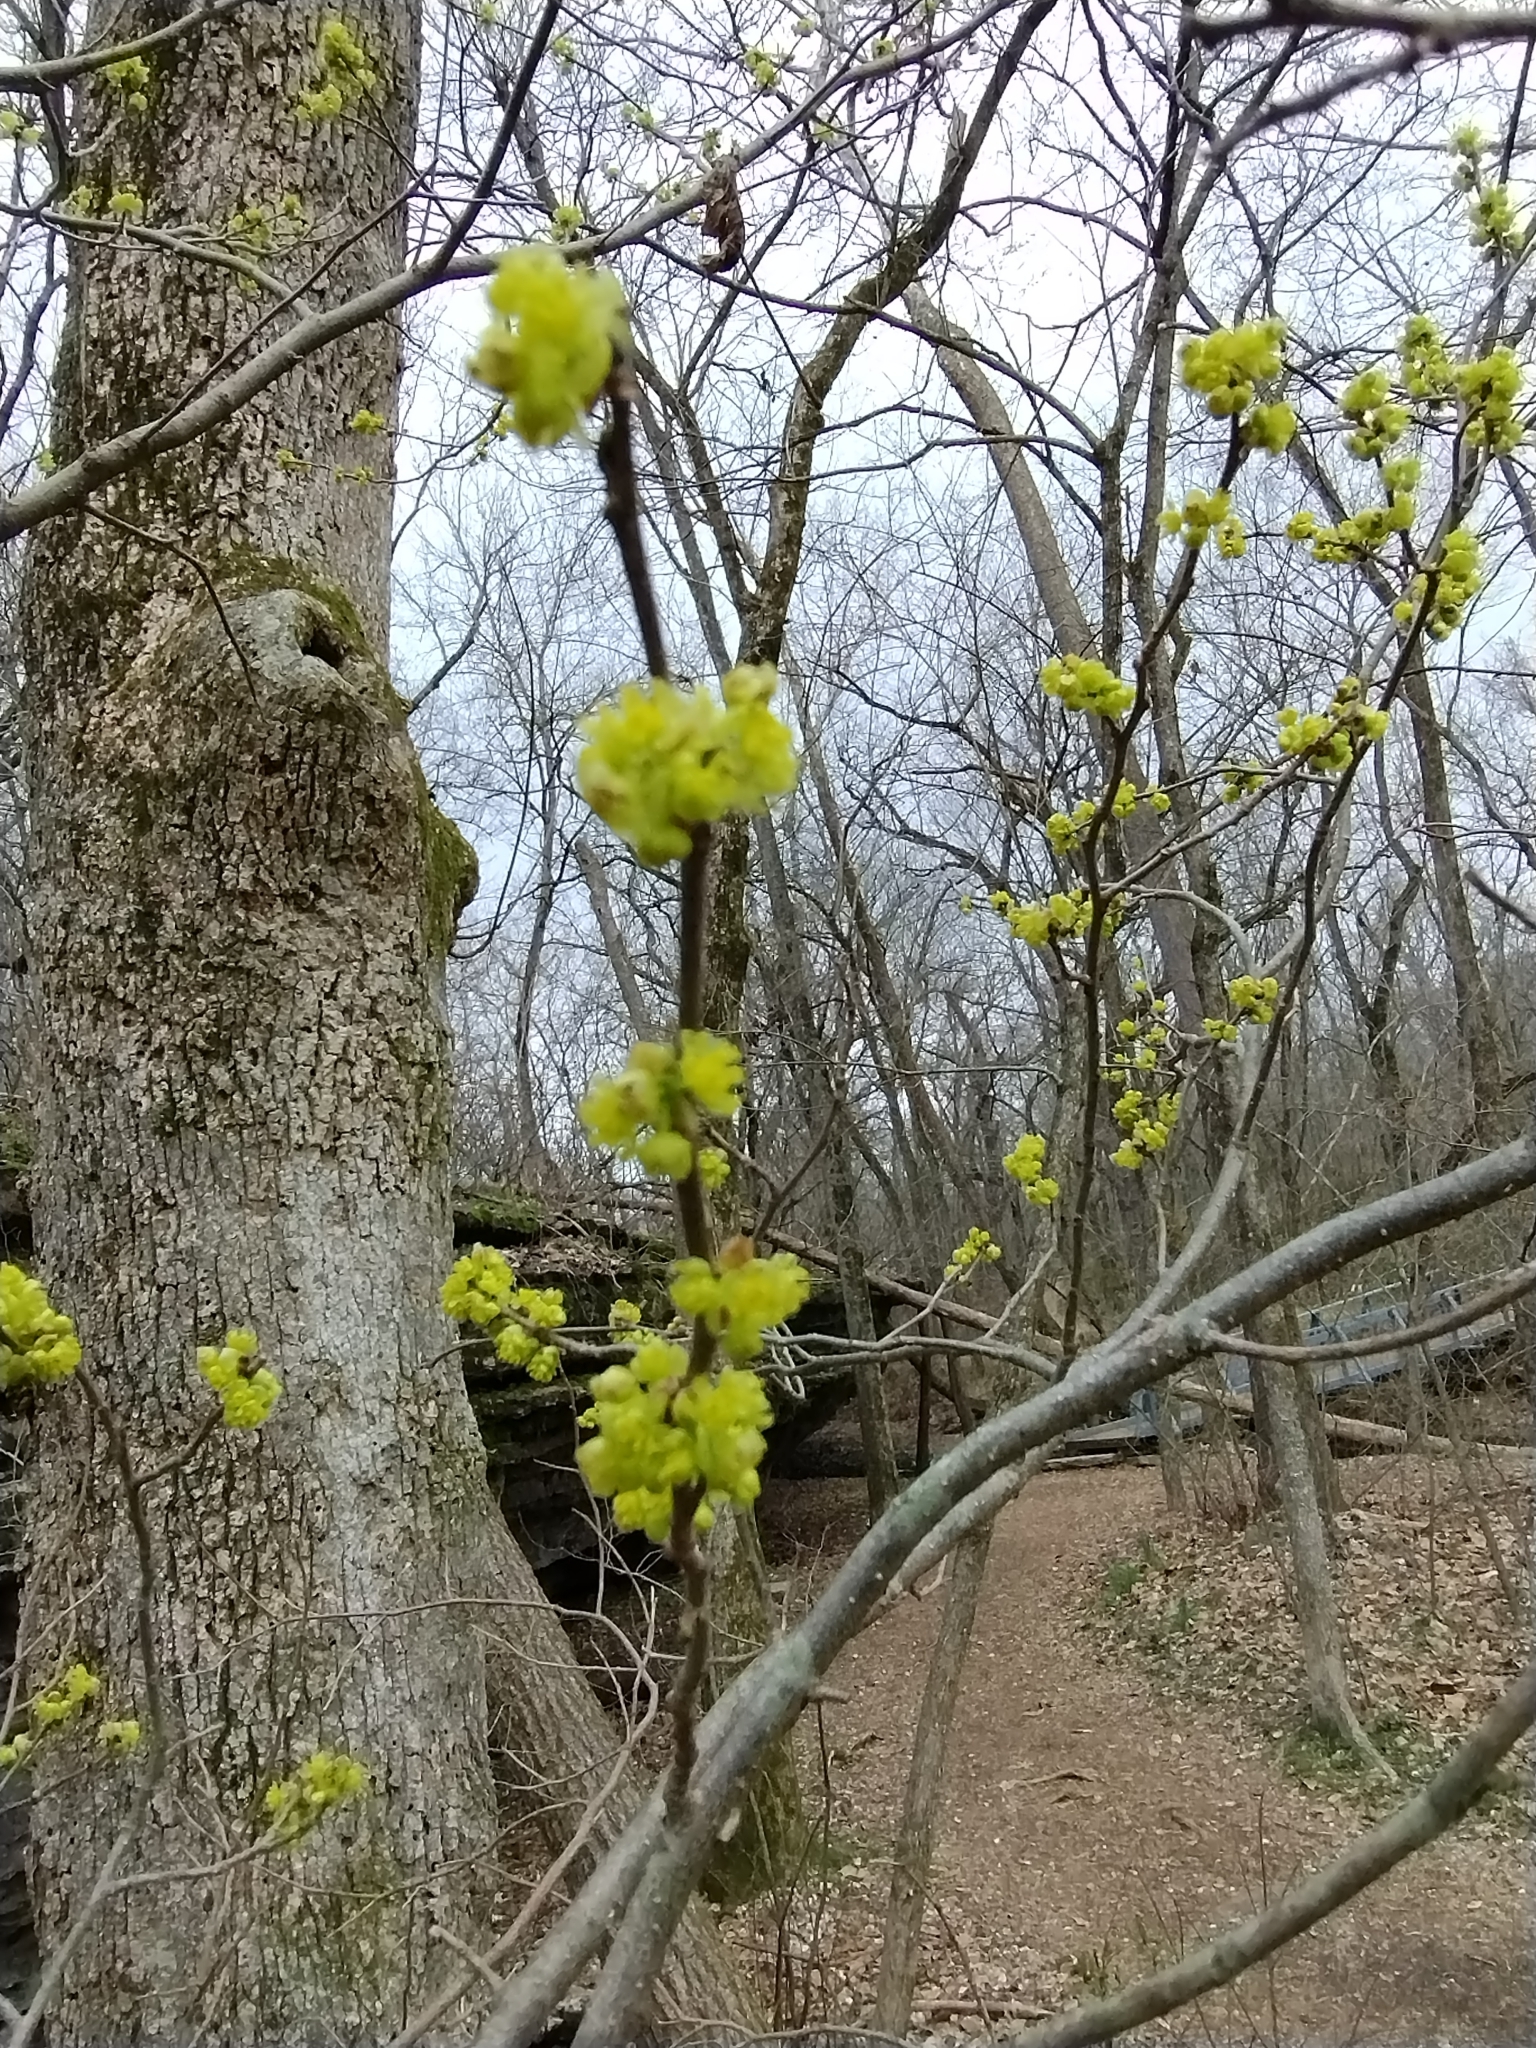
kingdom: Plantae
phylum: Tracheophyta
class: Magnoliopsida
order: Laurales
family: Lauraceae
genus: Lindera
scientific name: Lindera benzoin
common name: Spicebush
